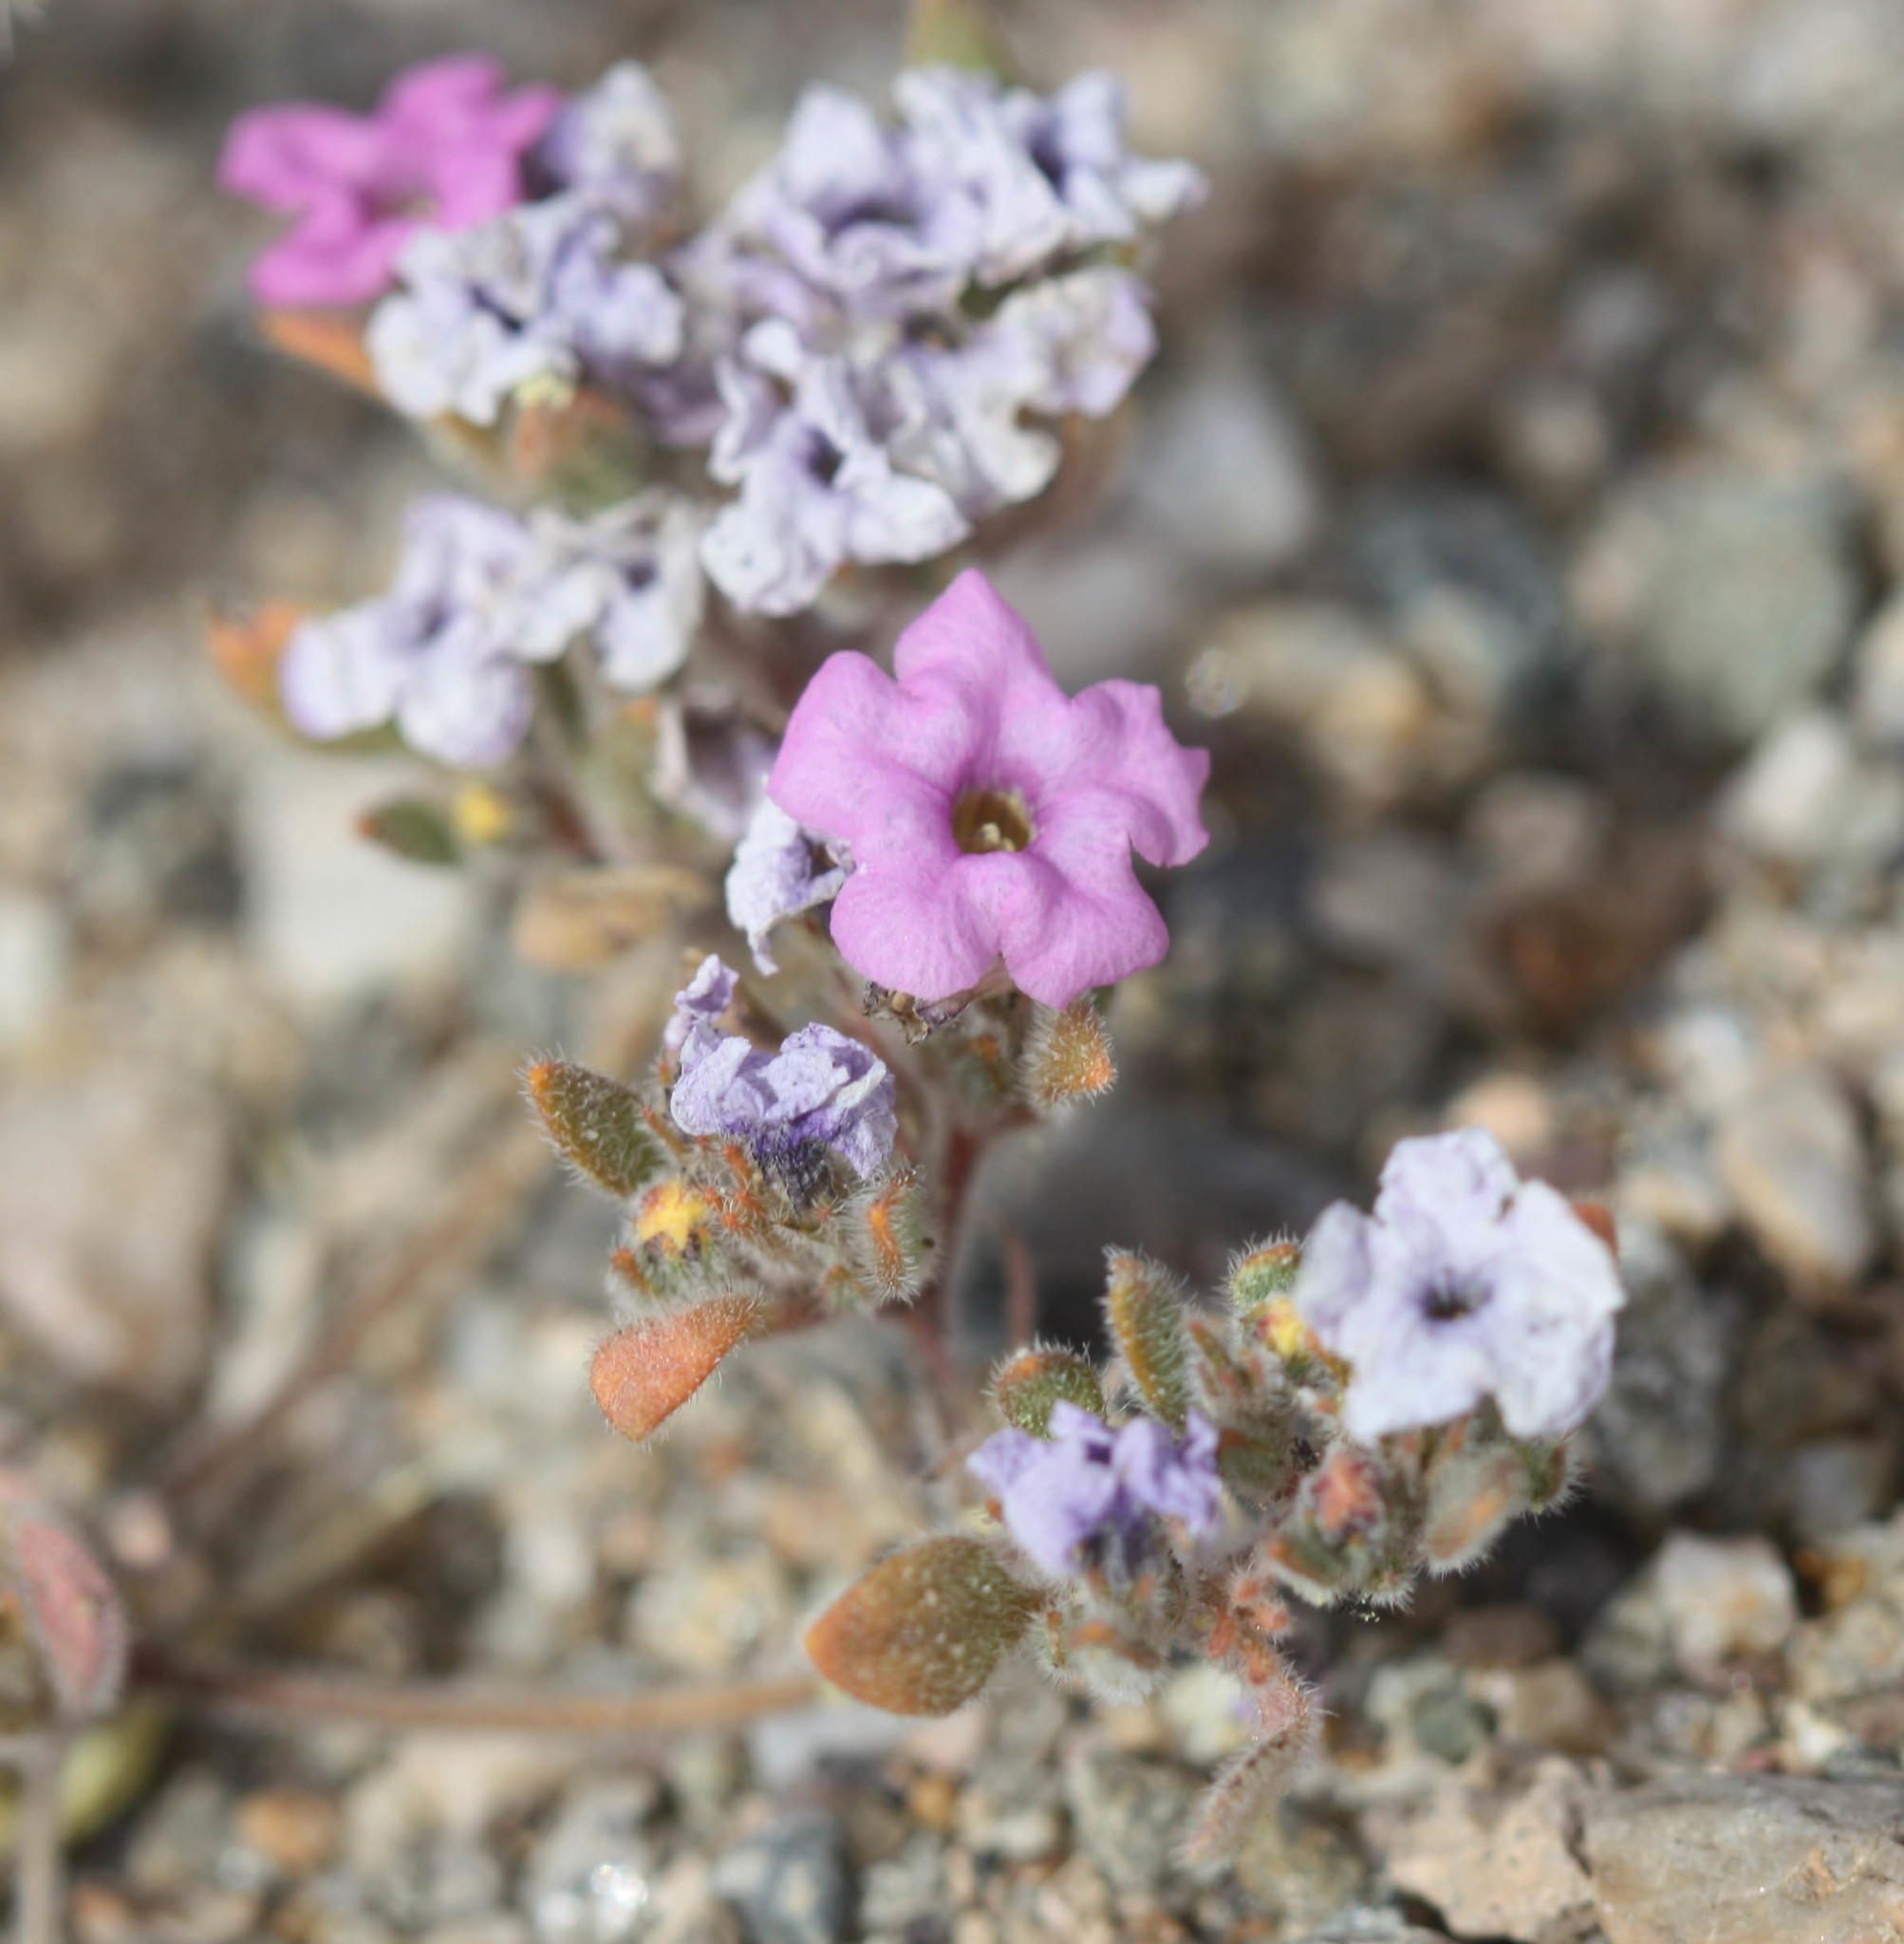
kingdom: Plantae
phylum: Tracheophyta
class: Magnoliopsida
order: Boraginales
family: Namaceae
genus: Nama
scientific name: Nama demissa
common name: Leafy nama
